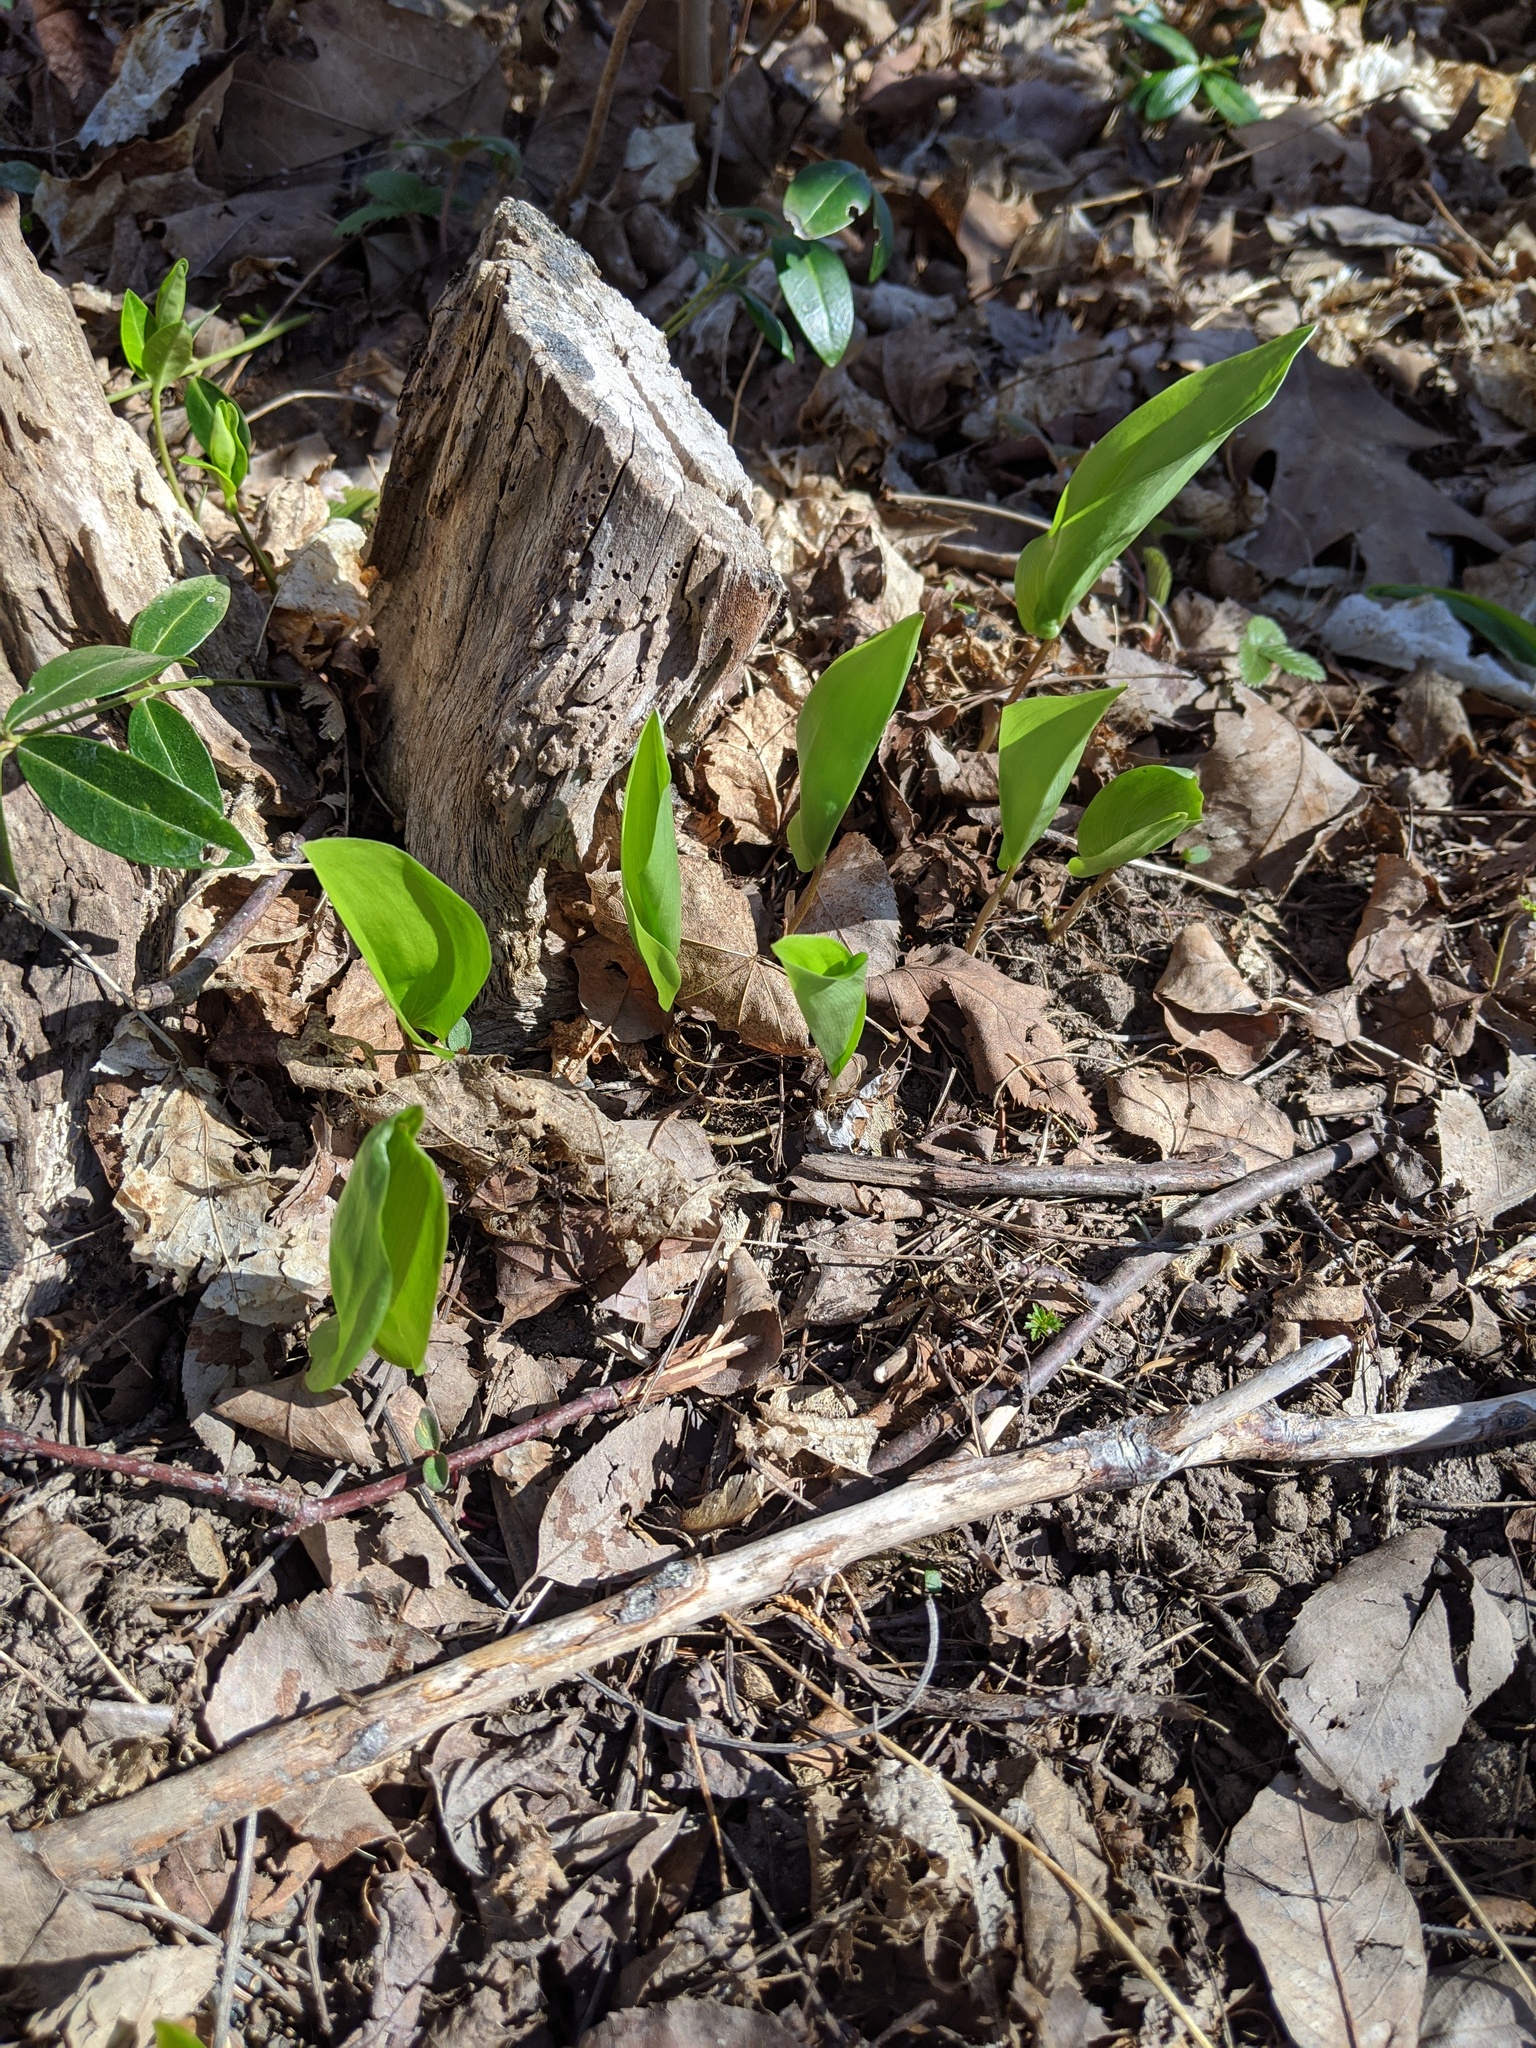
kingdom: Plantae
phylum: Tracheophyta
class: Liliopsida
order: Asparagales
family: Asparagaceae
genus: Maianthemum
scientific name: Maianthemum canadense
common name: False lily-of-the-valley
